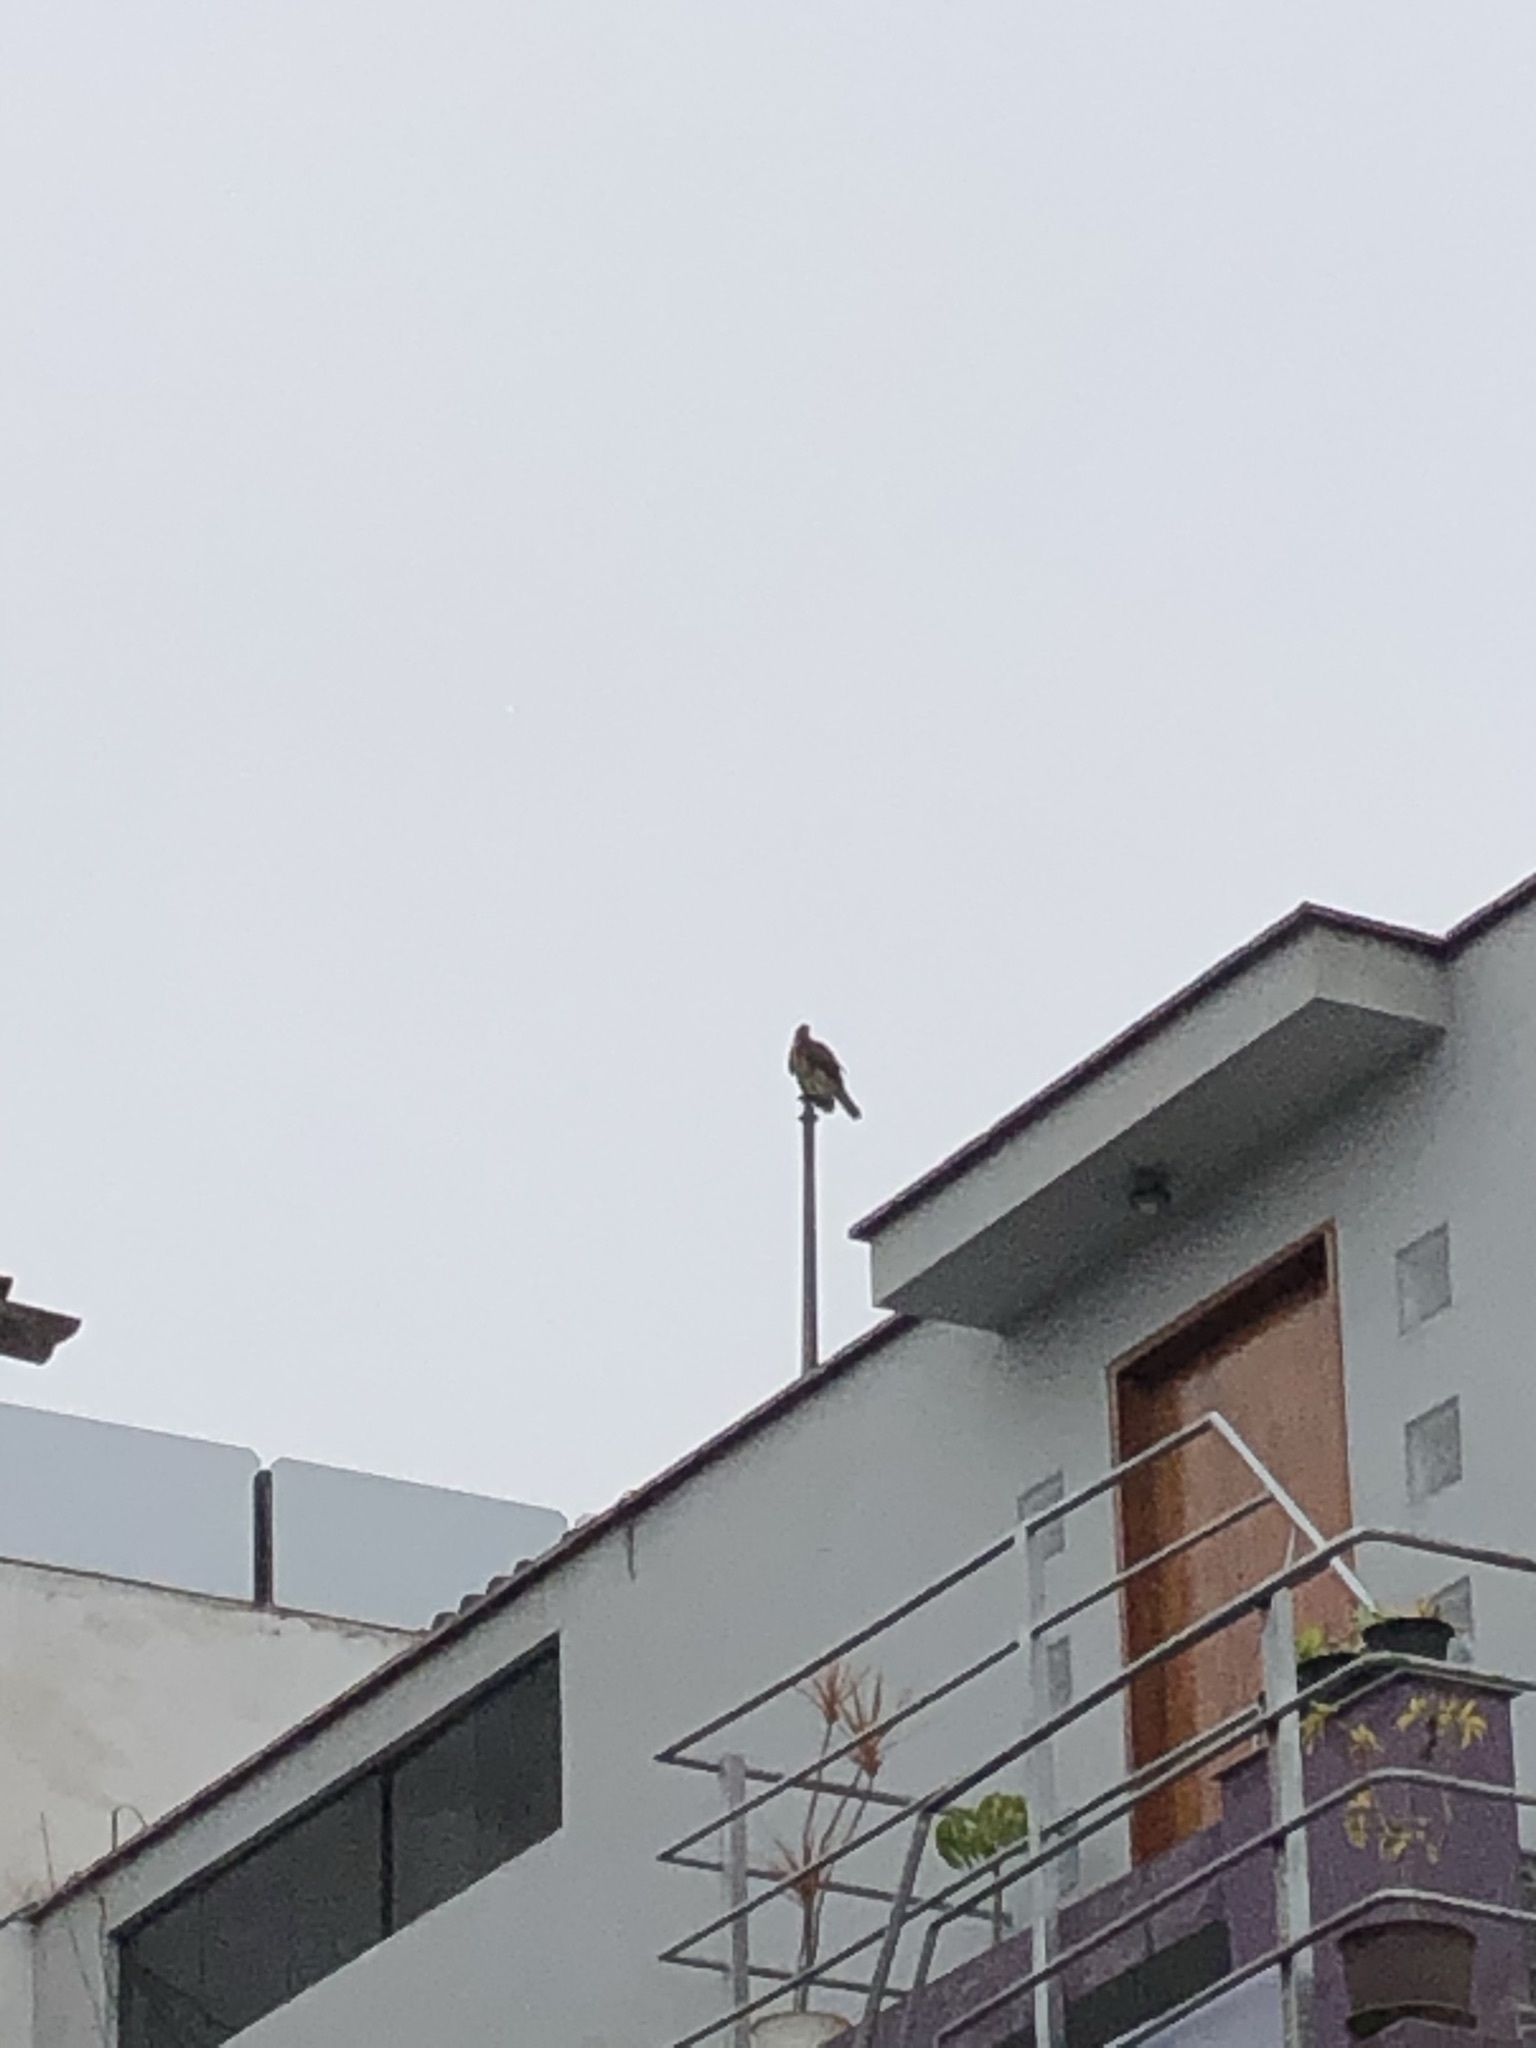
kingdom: Animalia
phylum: Chordata
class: Aves
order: Accipitriformes
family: Accipitridae
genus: Parabuteo
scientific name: Parabuteo unicinctus
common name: Harris's hawk
